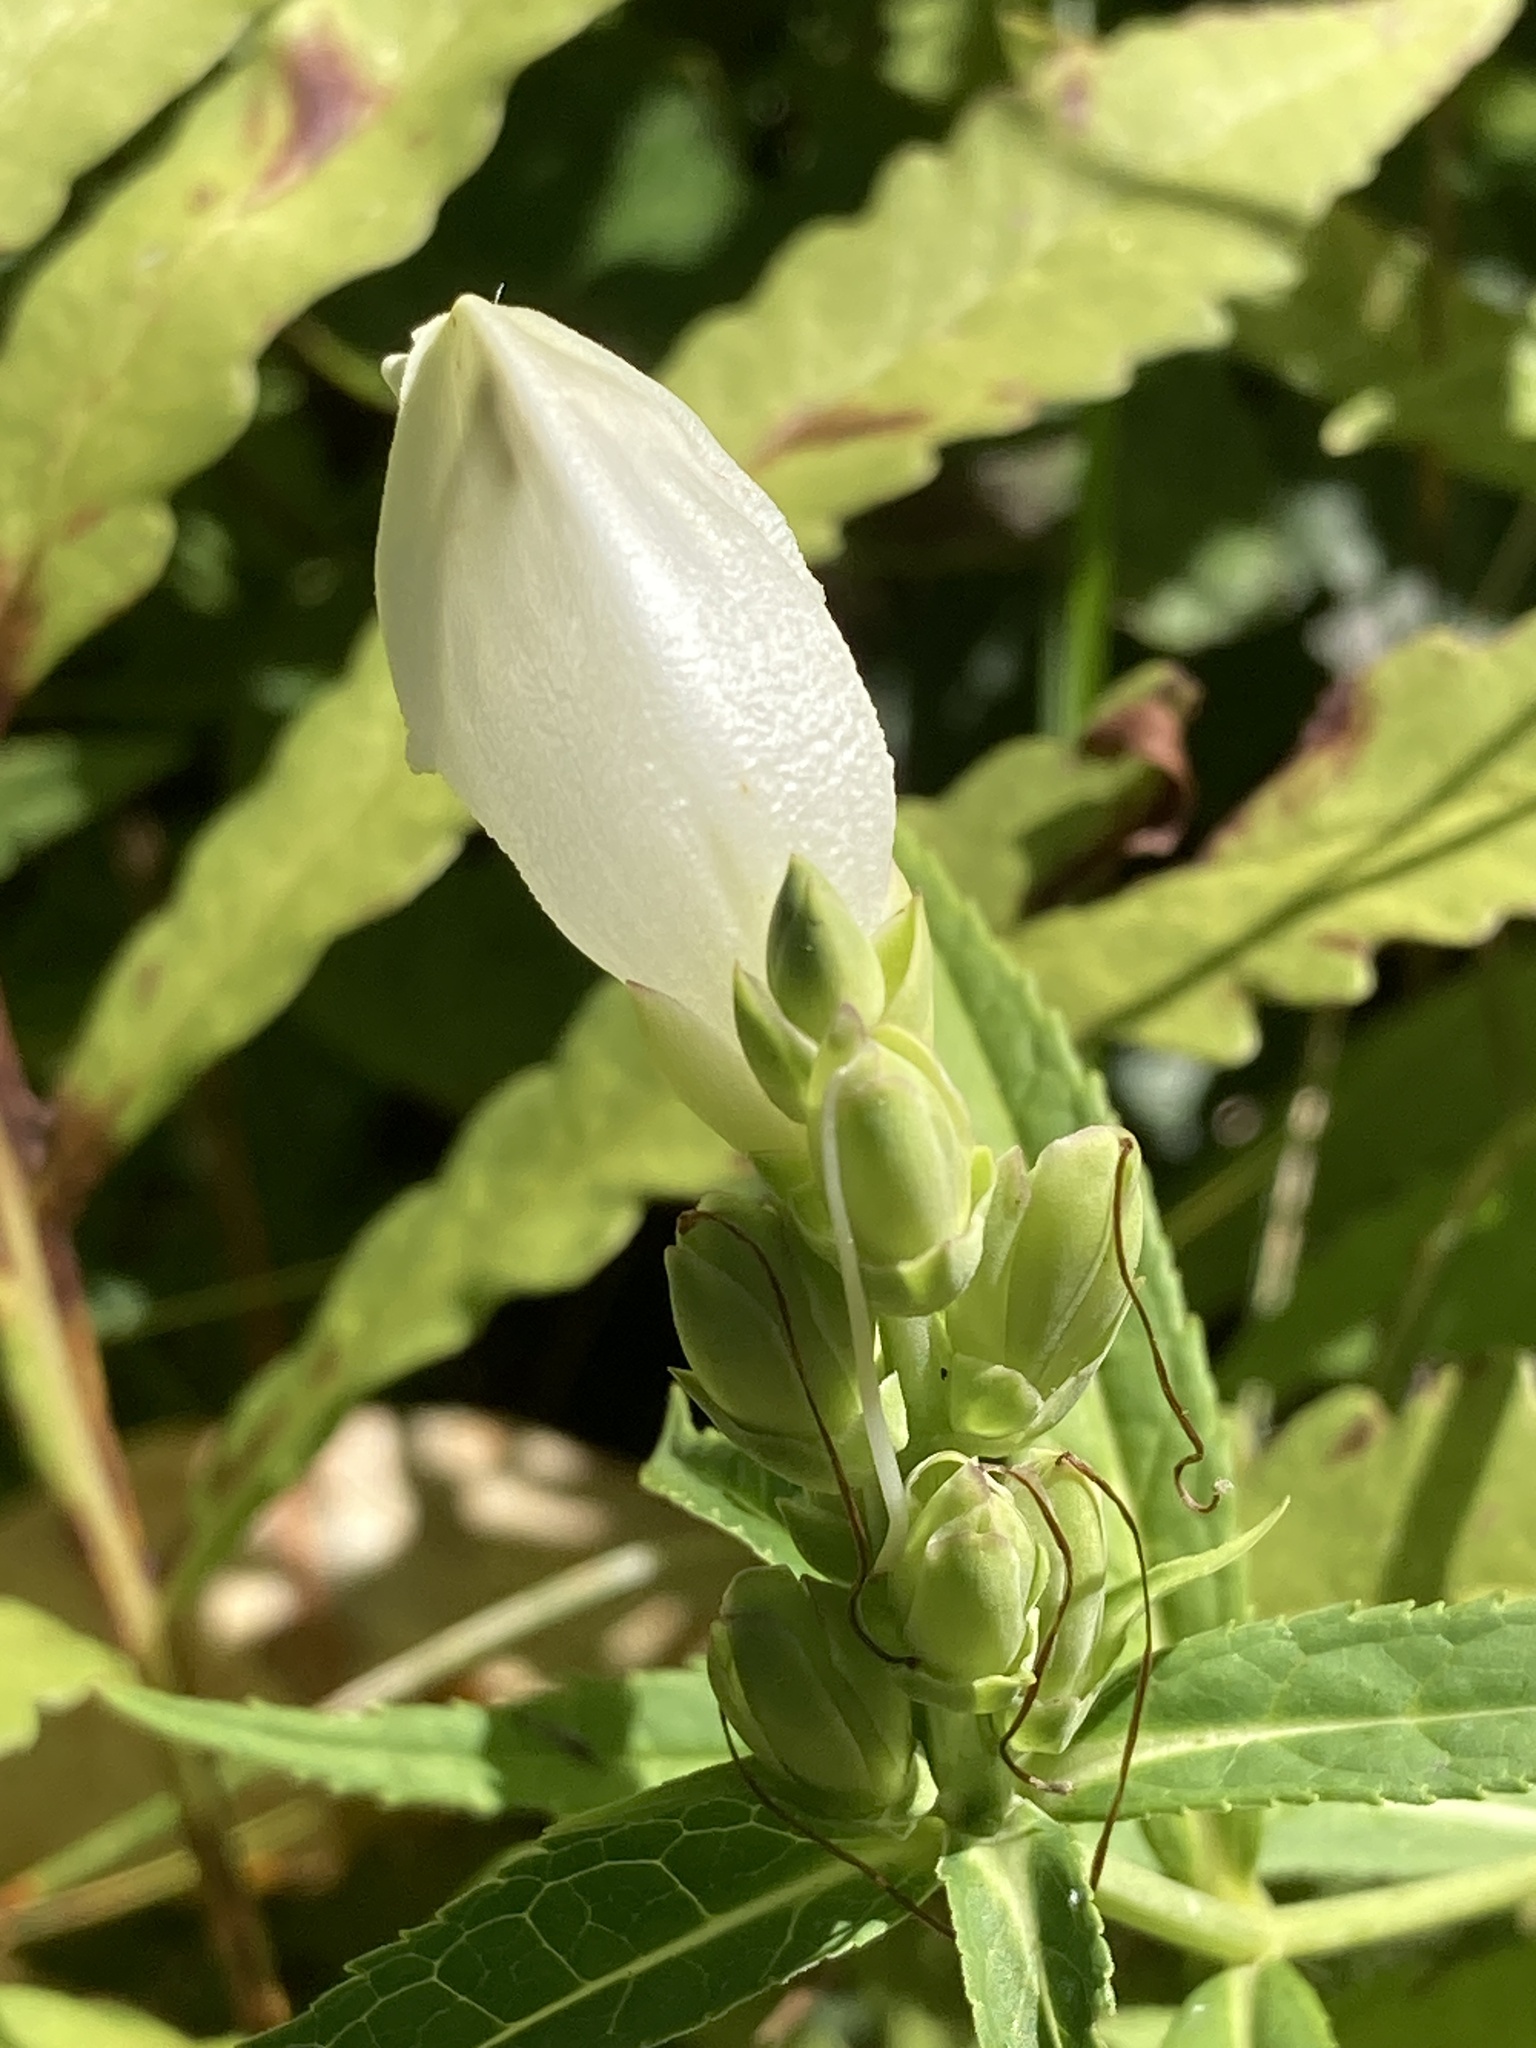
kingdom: Plantae
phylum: Tracheophyta
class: Magnoliopsida
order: Lamiales
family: Plantaginaceae
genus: Chelone
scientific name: Chelone glabra
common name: Snakehead
